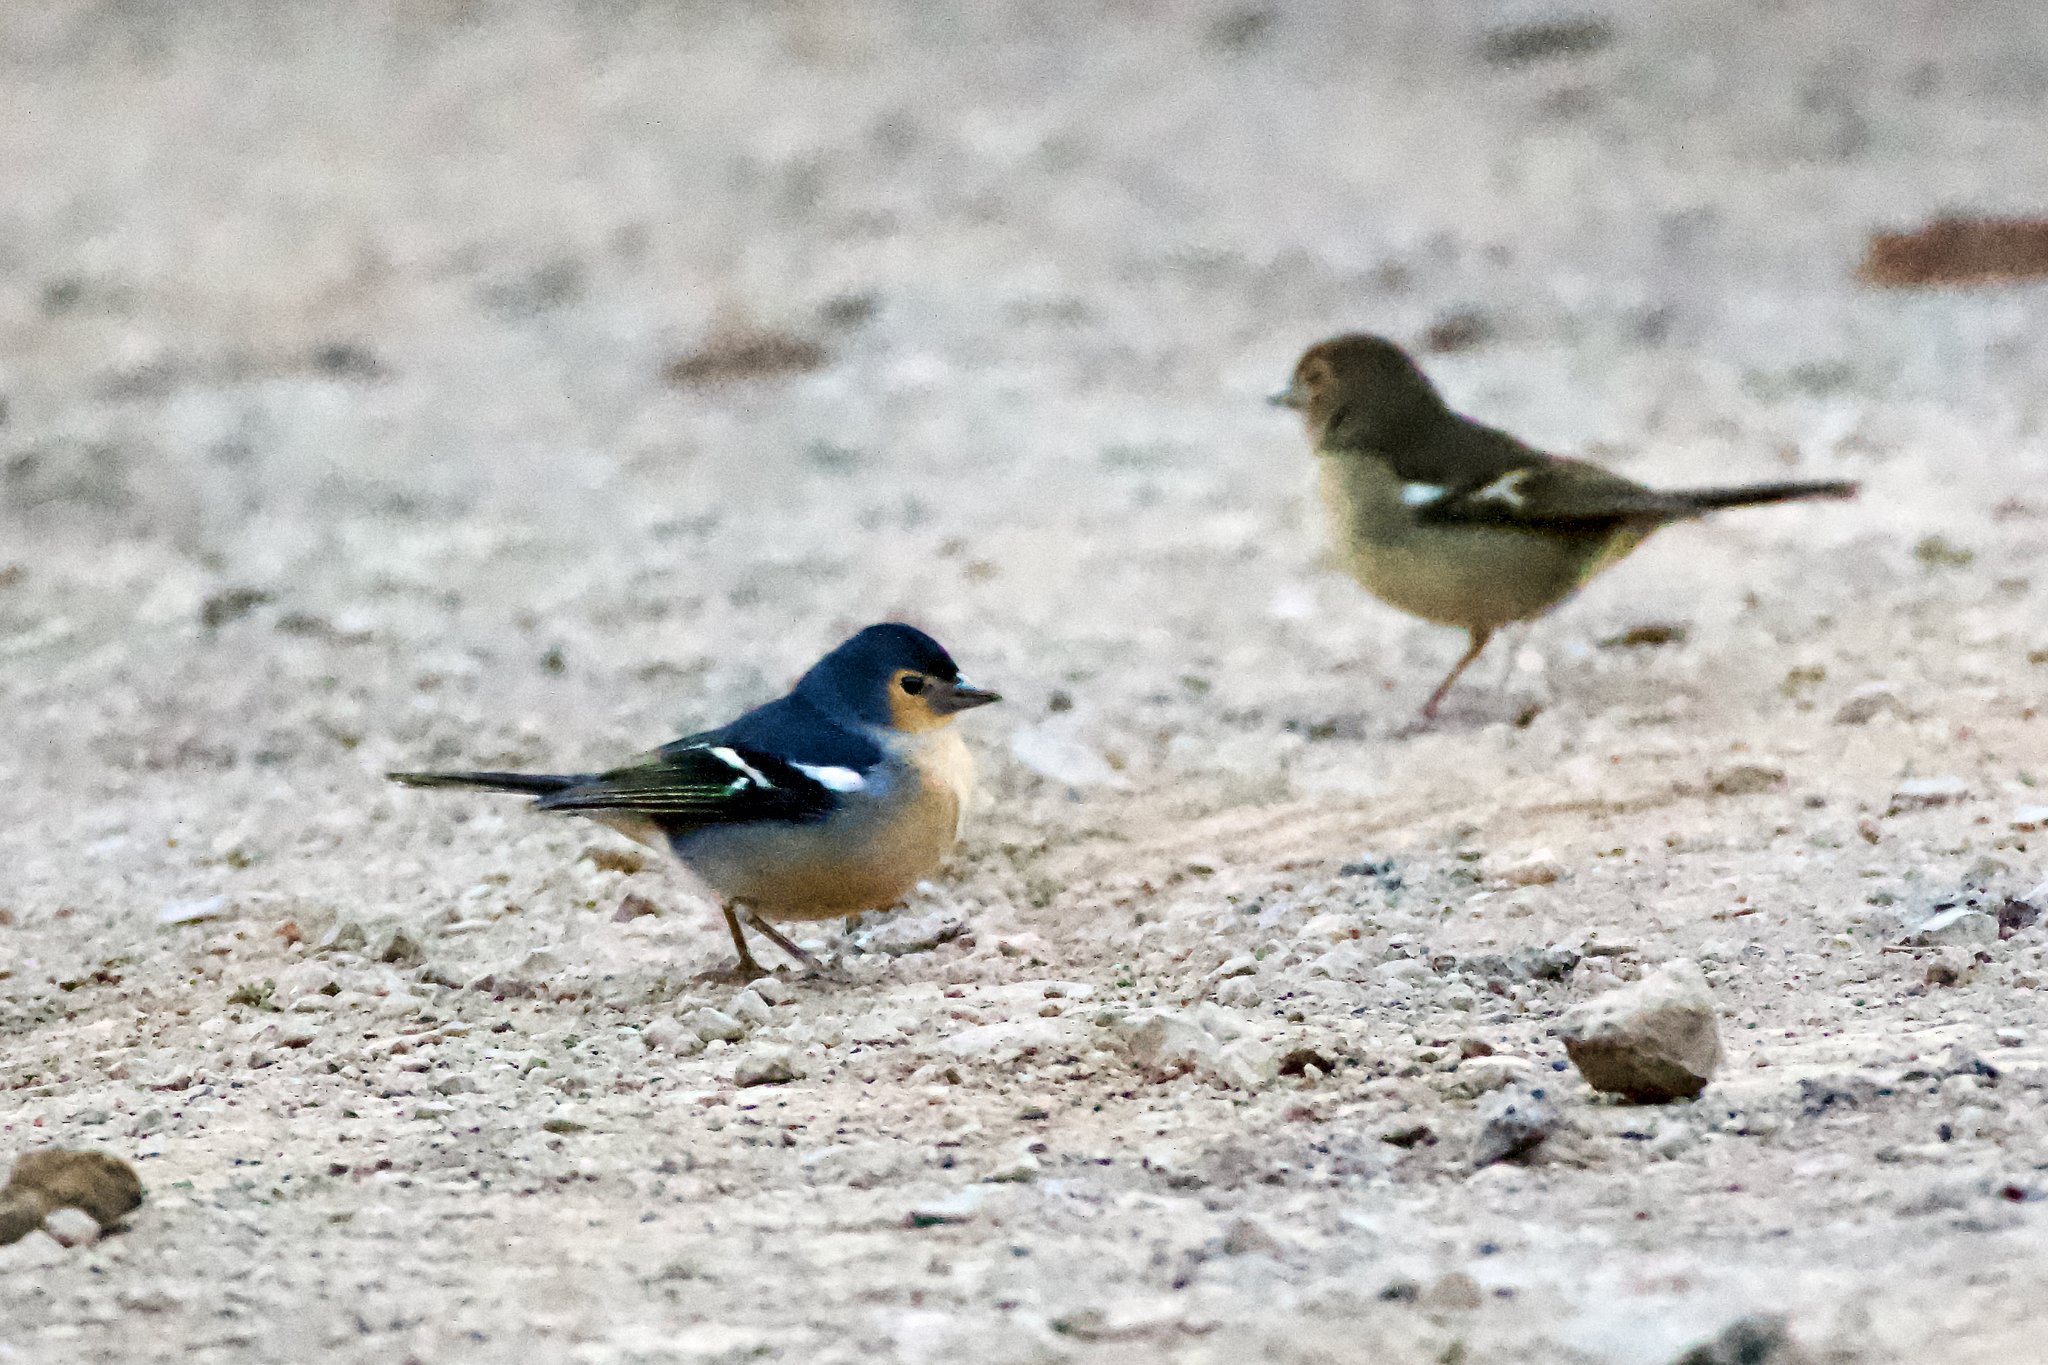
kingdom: Animalia
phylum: Chordata
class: Aves
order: Passeriformes
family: Fringillidae
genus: Fringilla
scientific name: Fringilla canariensis
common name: Canary islands chaffinch
